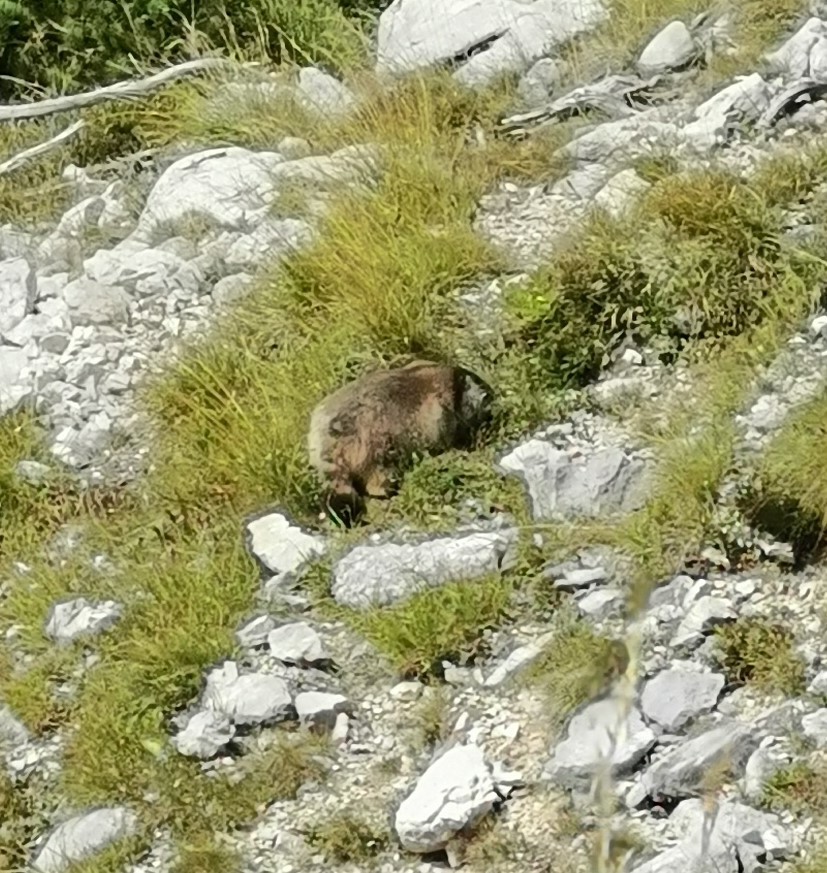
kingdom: Animalia
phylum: Chordata
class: Mammalia
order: Rodentia
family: Sciuridae
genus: Marmota
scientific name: Marmota marmota
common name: Alpine marmot
